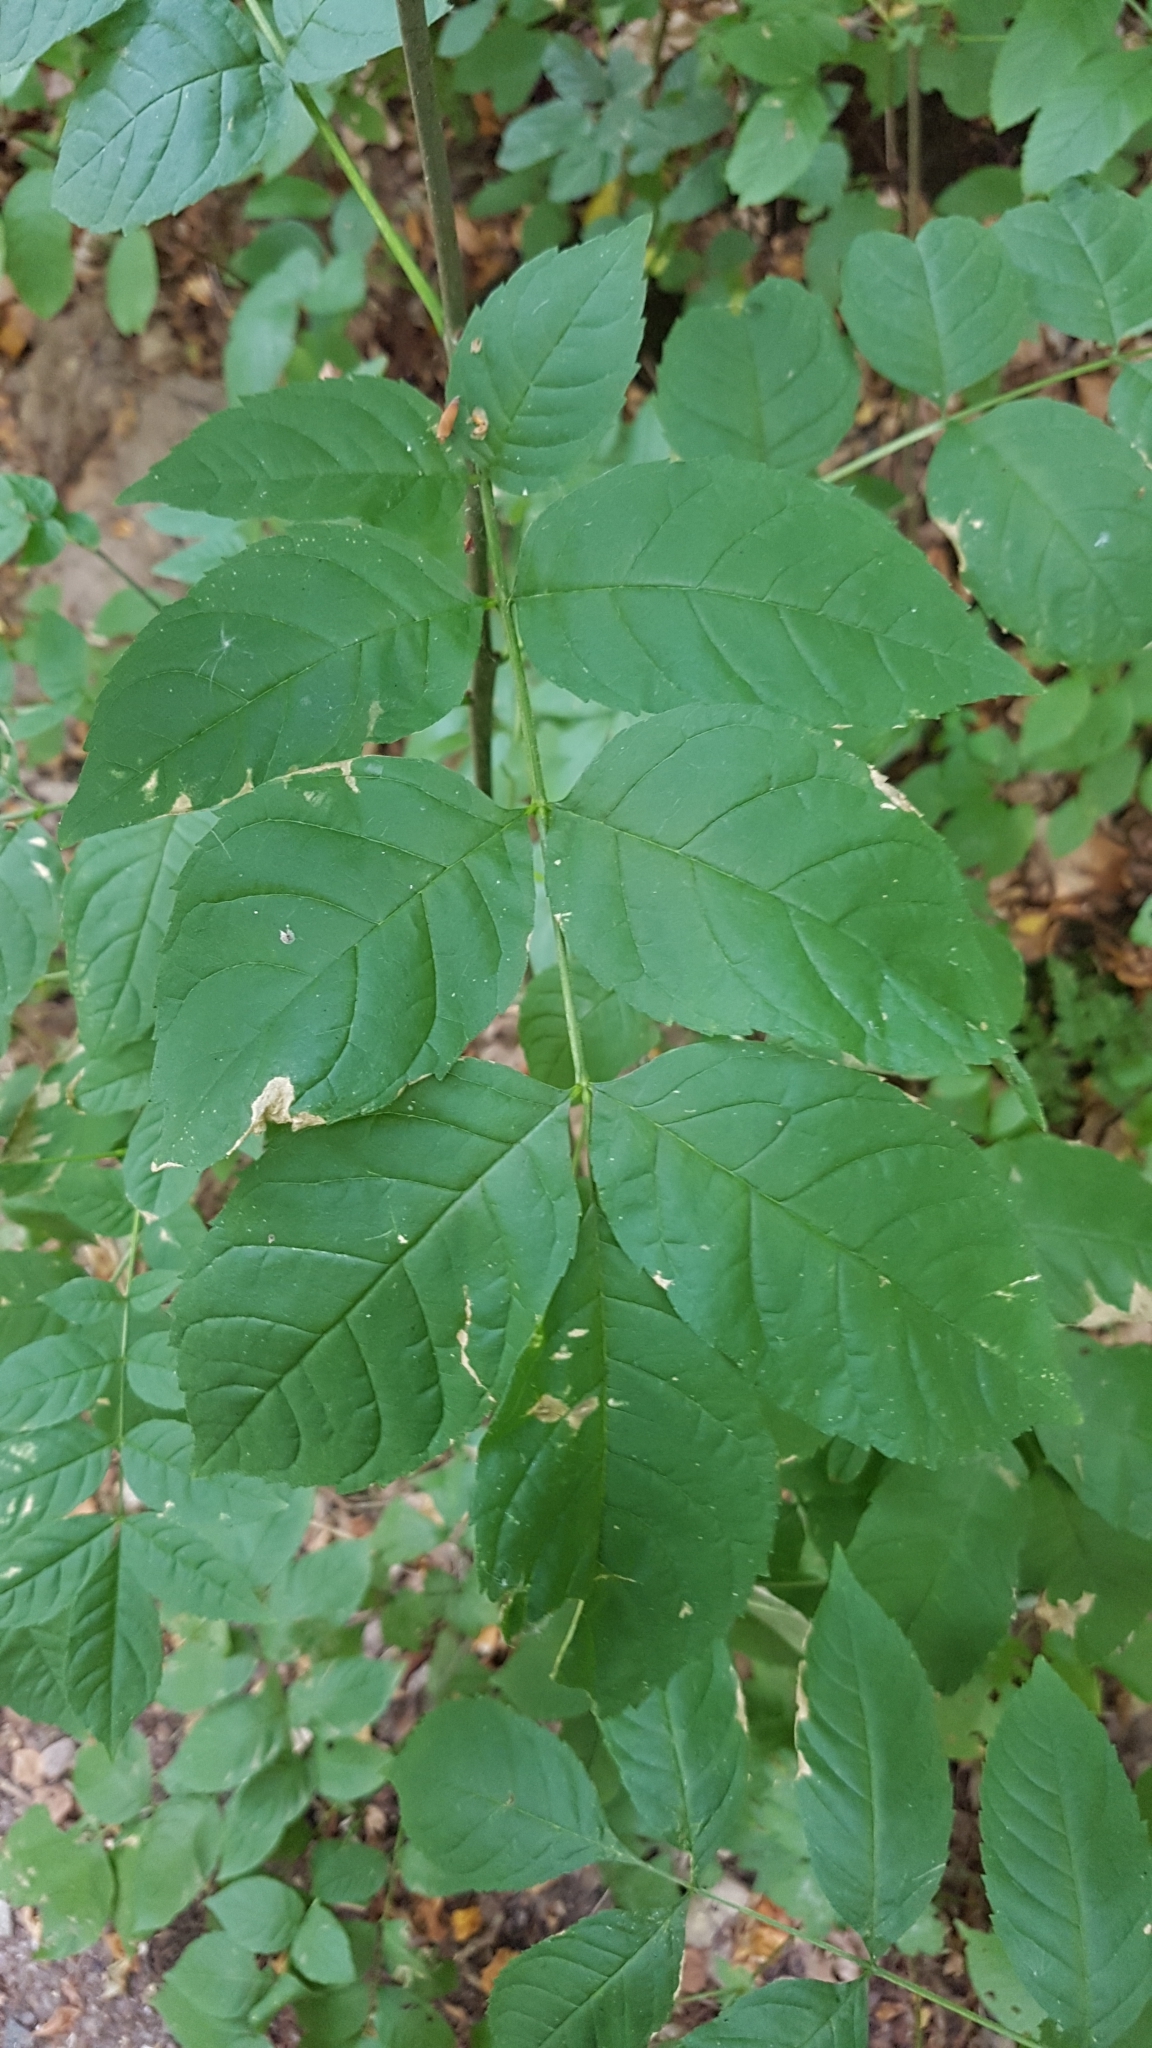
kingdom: Plantae
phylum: Tracheophyta
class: Magnoliopsida
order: Lamiales
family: Oleaceae
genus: Fraxinus
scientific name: Fraxinus excelsior
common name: European ash
